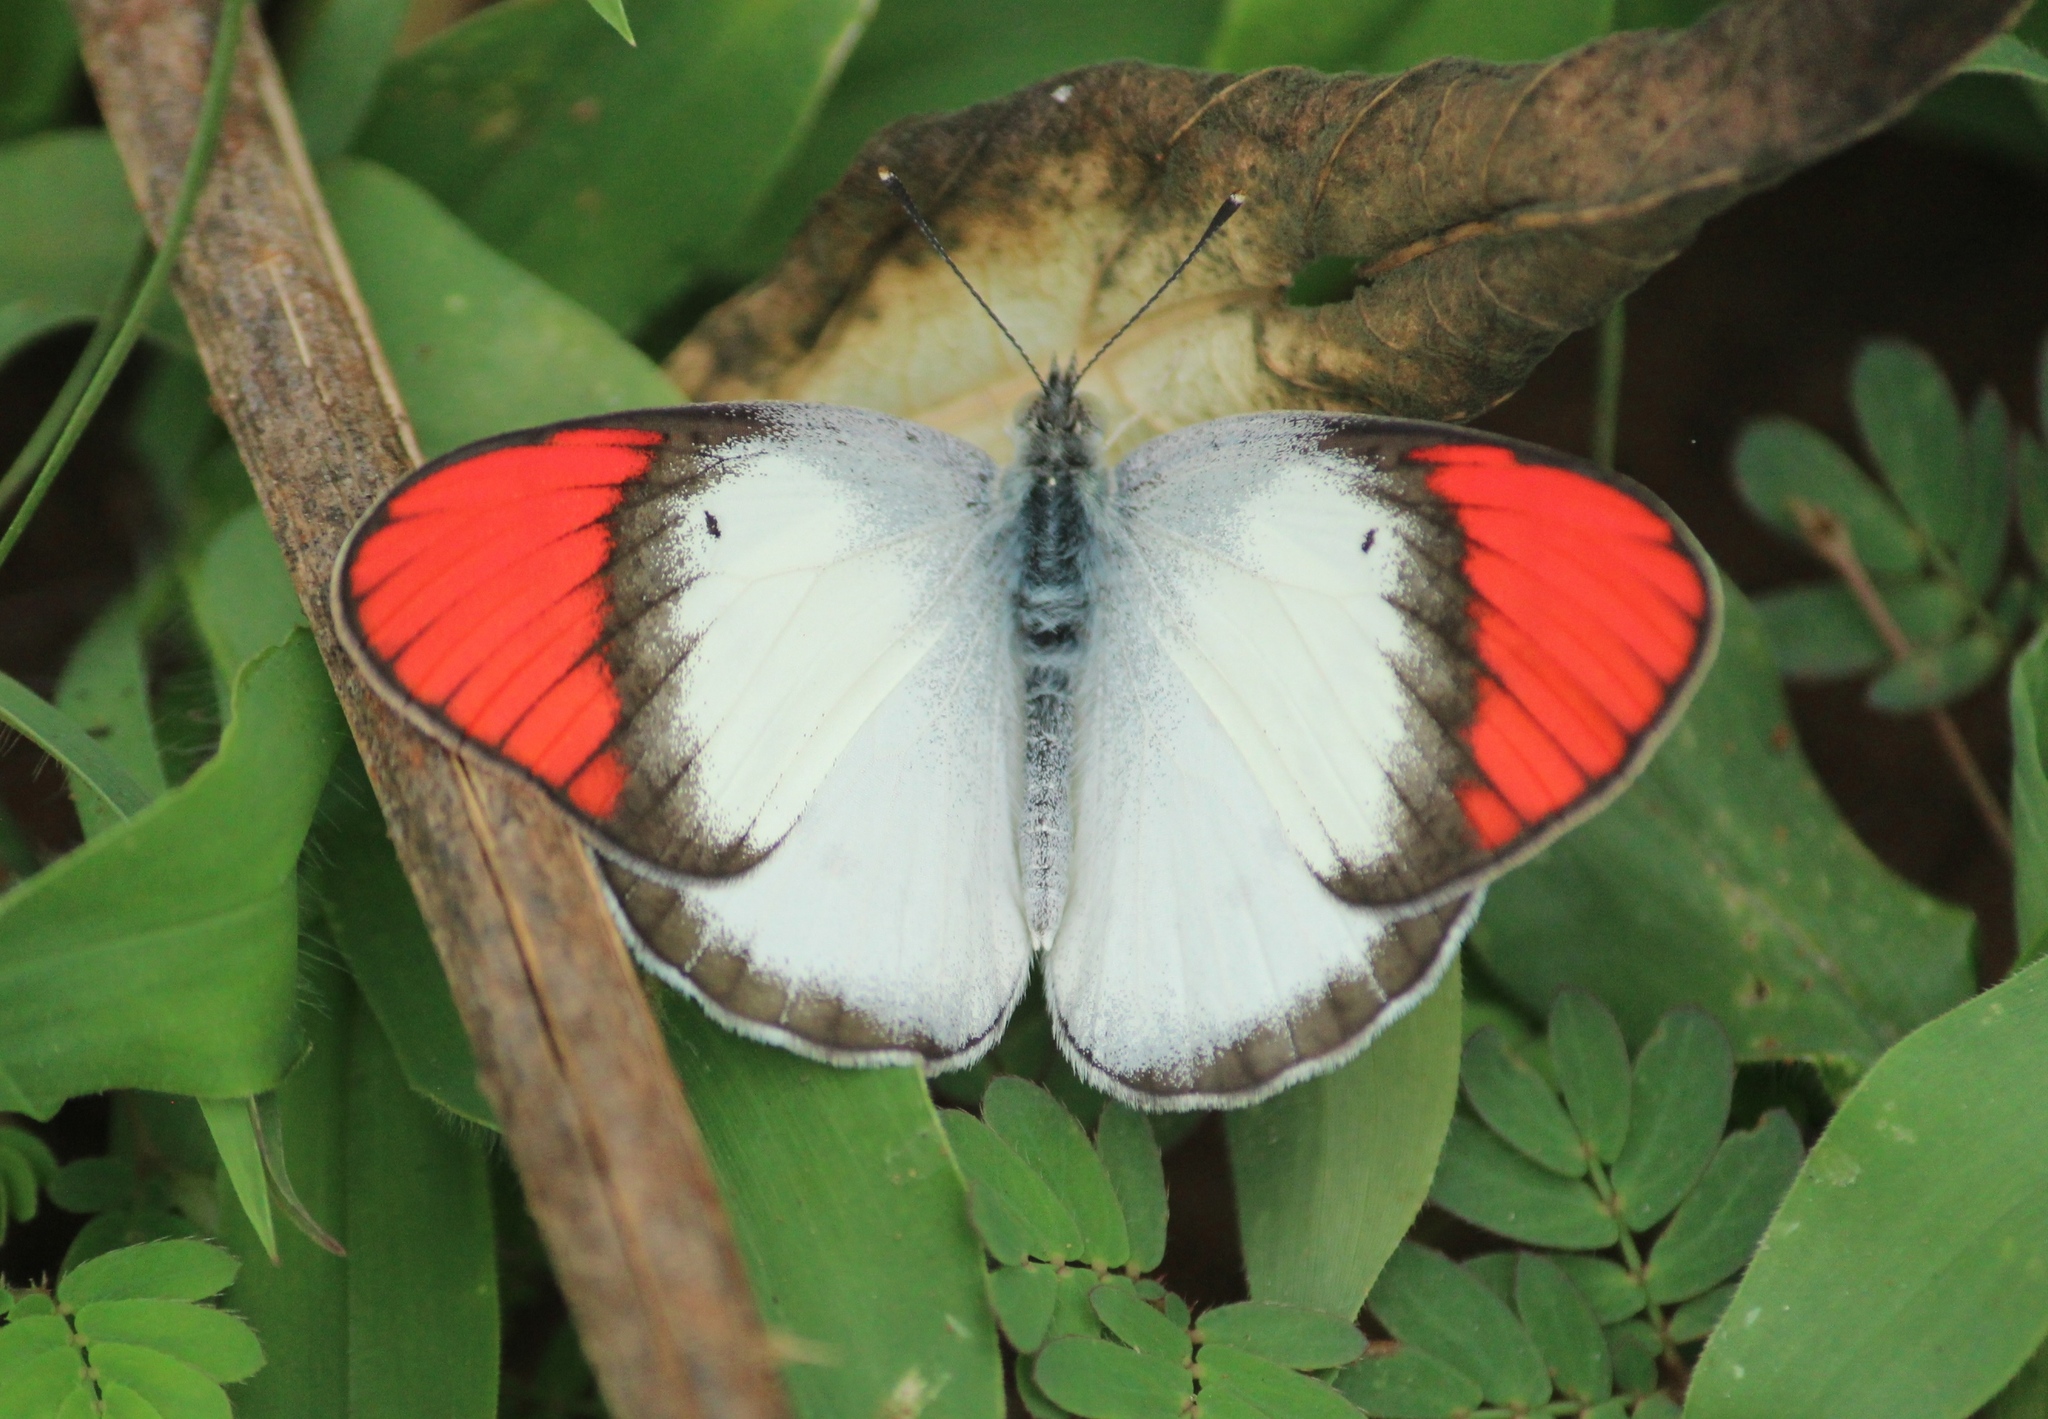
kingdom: Animalia
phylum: Arthropoda
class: Insecta
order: Lepidoptera
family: Pieridae
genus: Colotis
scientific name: Colotis danae
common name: Crimson tip
